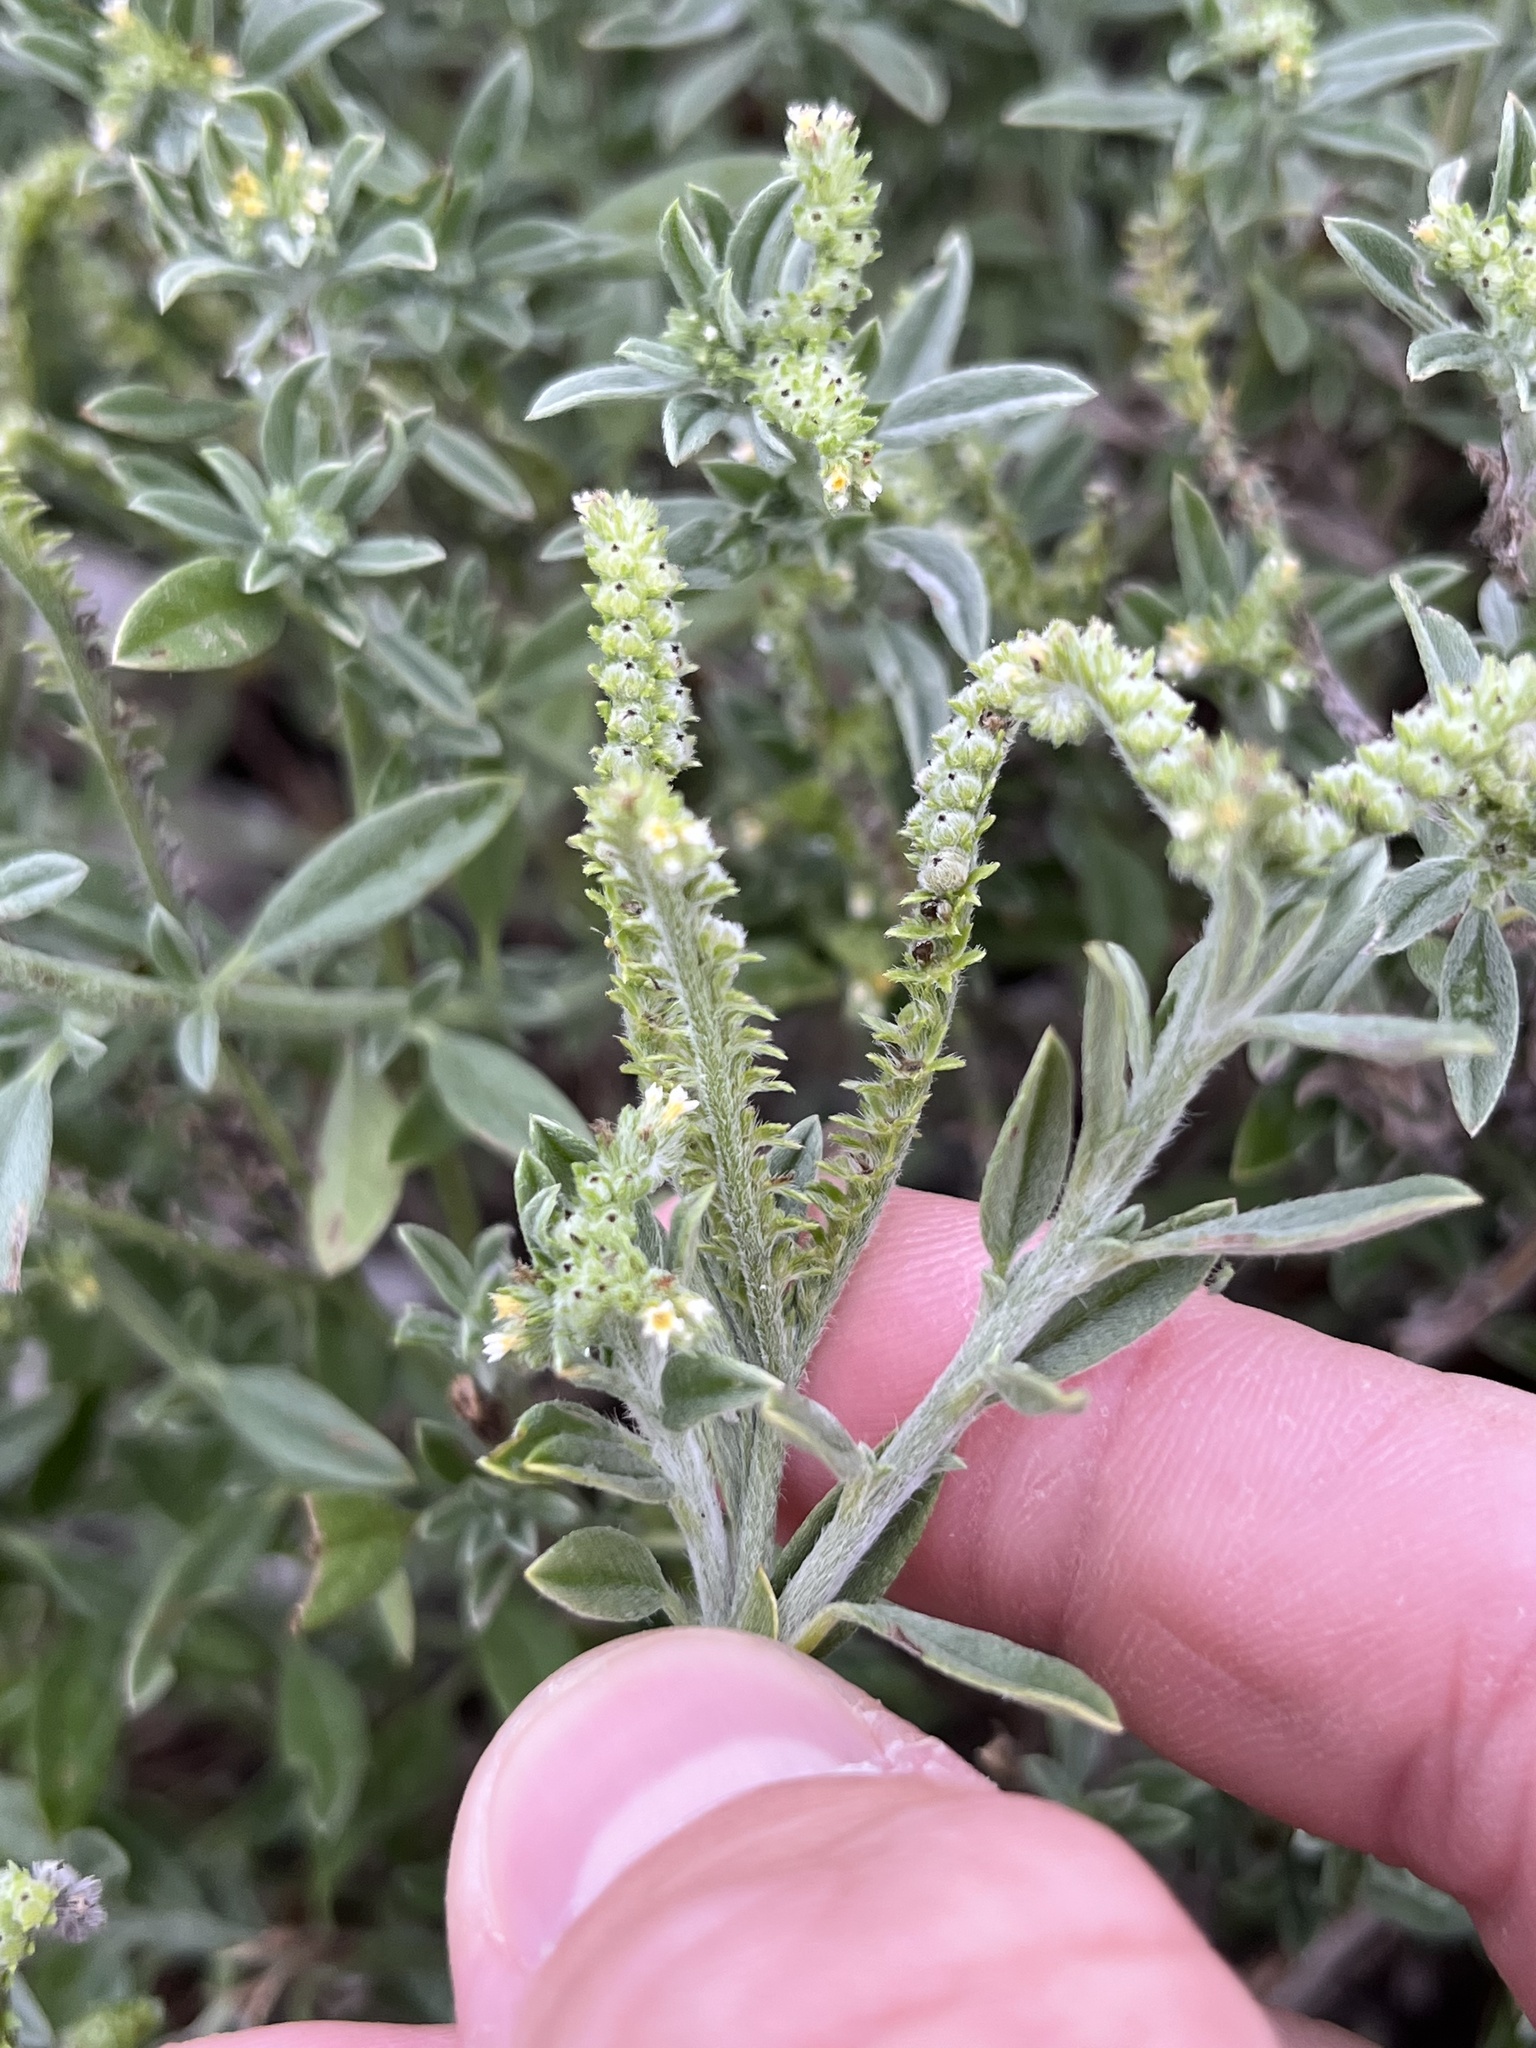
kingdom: Plantae
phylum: Tracheophyta
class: Magnoliopsida
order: Boraginales
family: Heliotropiaceae
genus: Euploca
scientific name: Euploca procumbens
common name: Fourspike heliotrope
